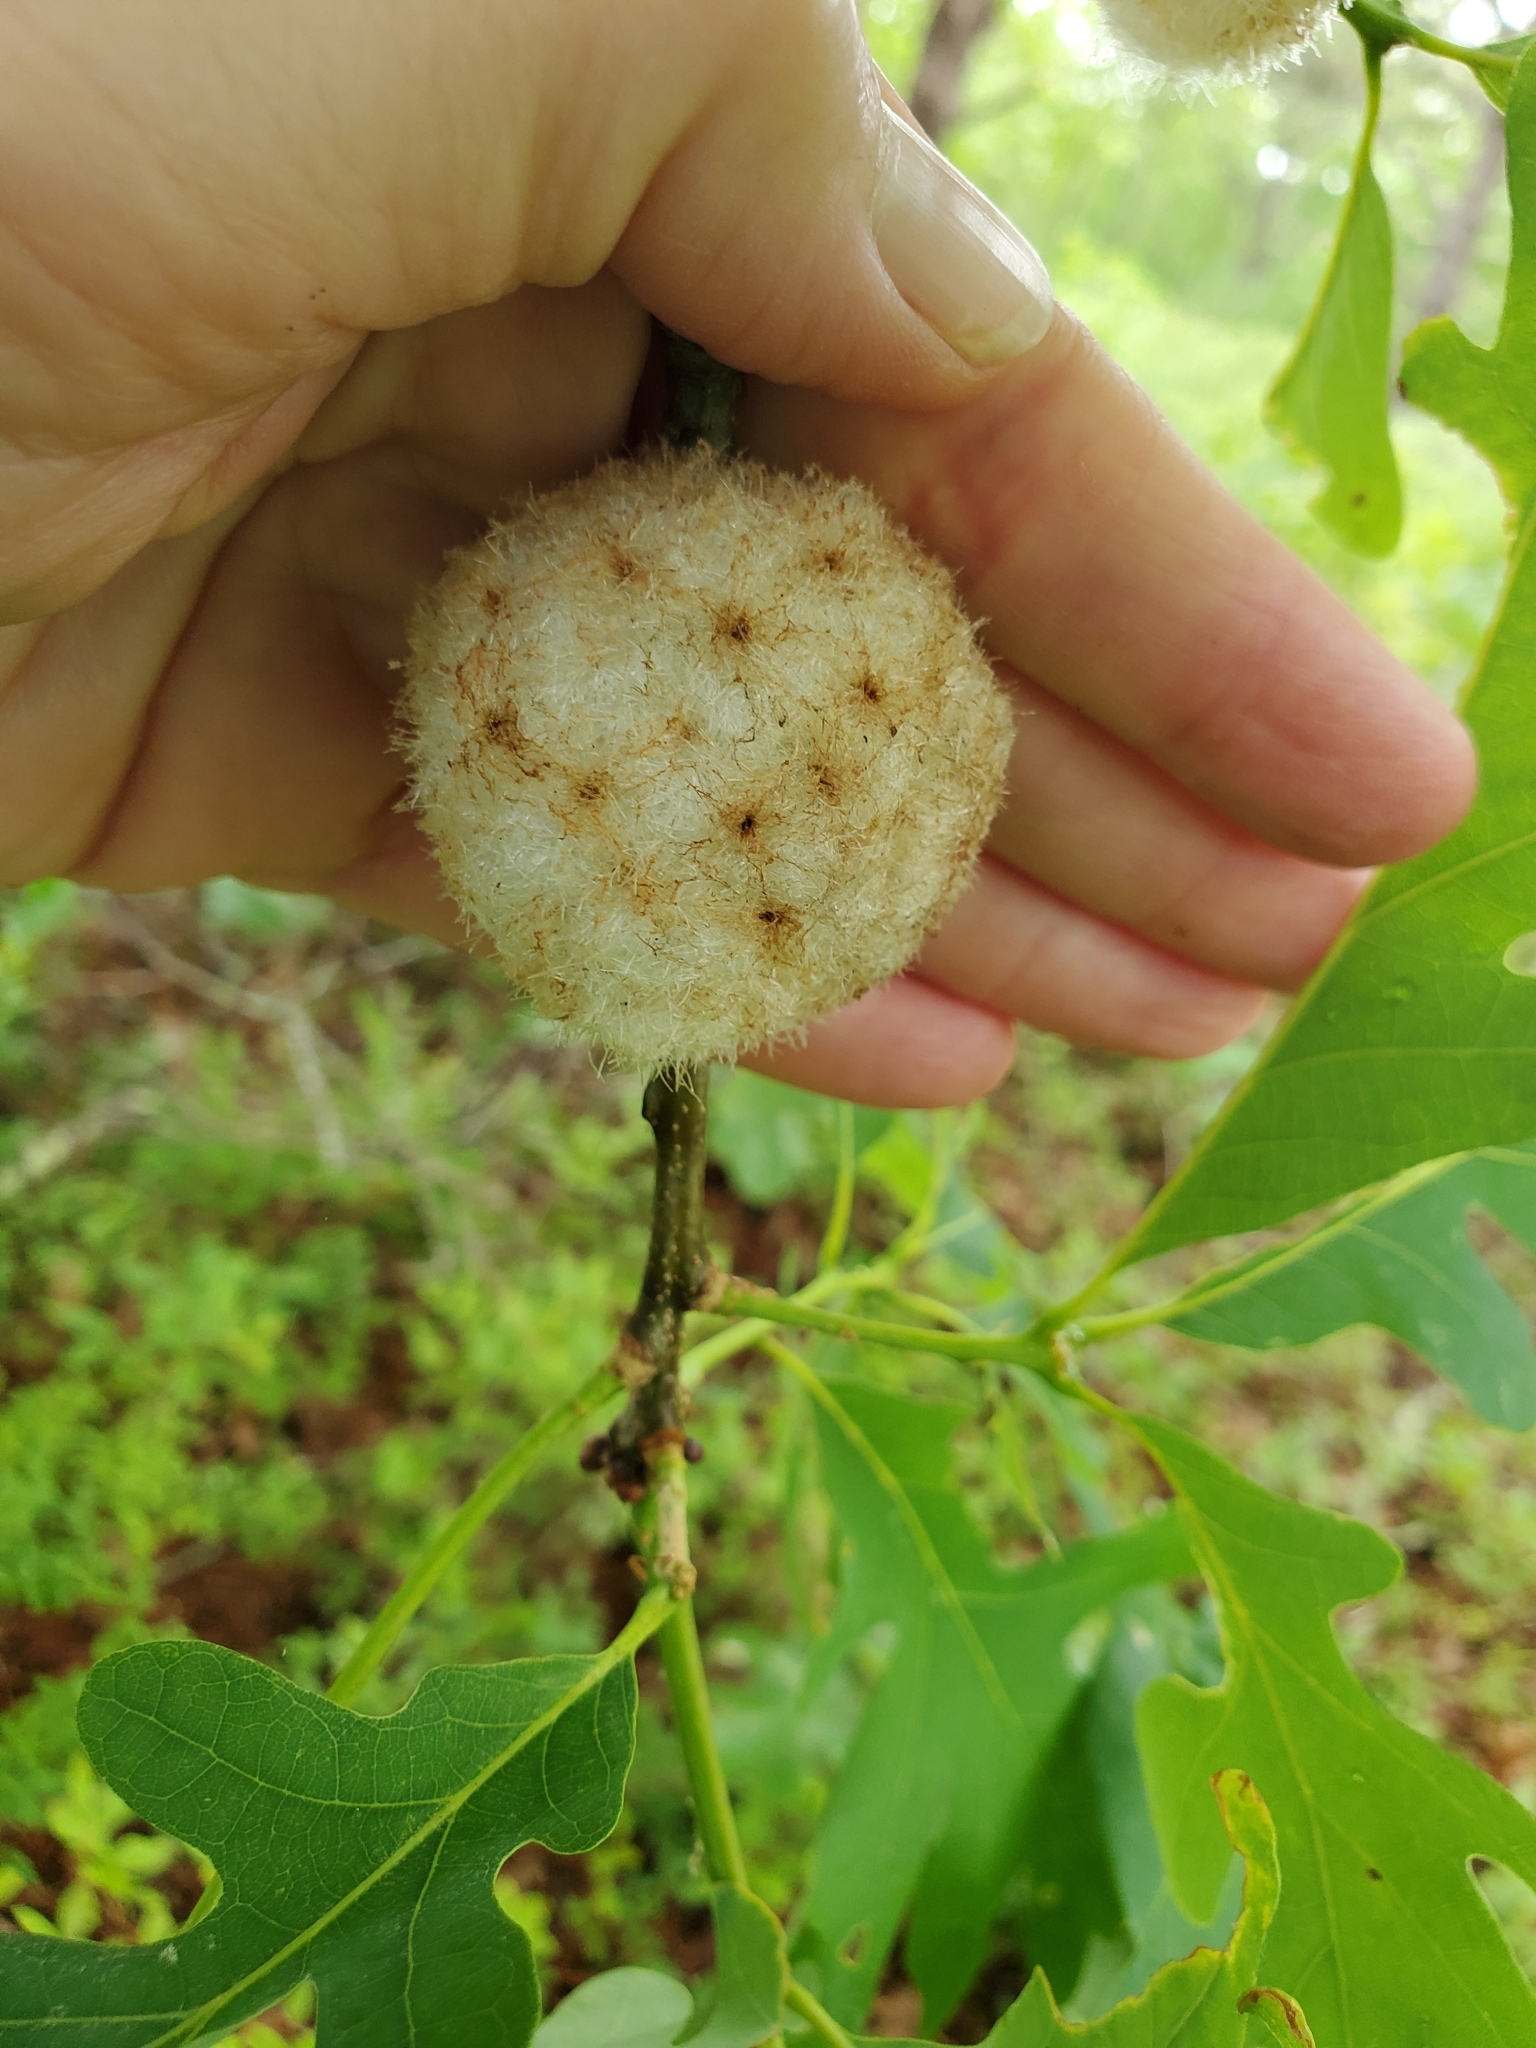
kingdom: Animalia
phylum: Arthropoda
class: Insecta
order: Hymenoptera
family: Cynipidae
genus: Callirhytis
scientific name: Callirhytis
